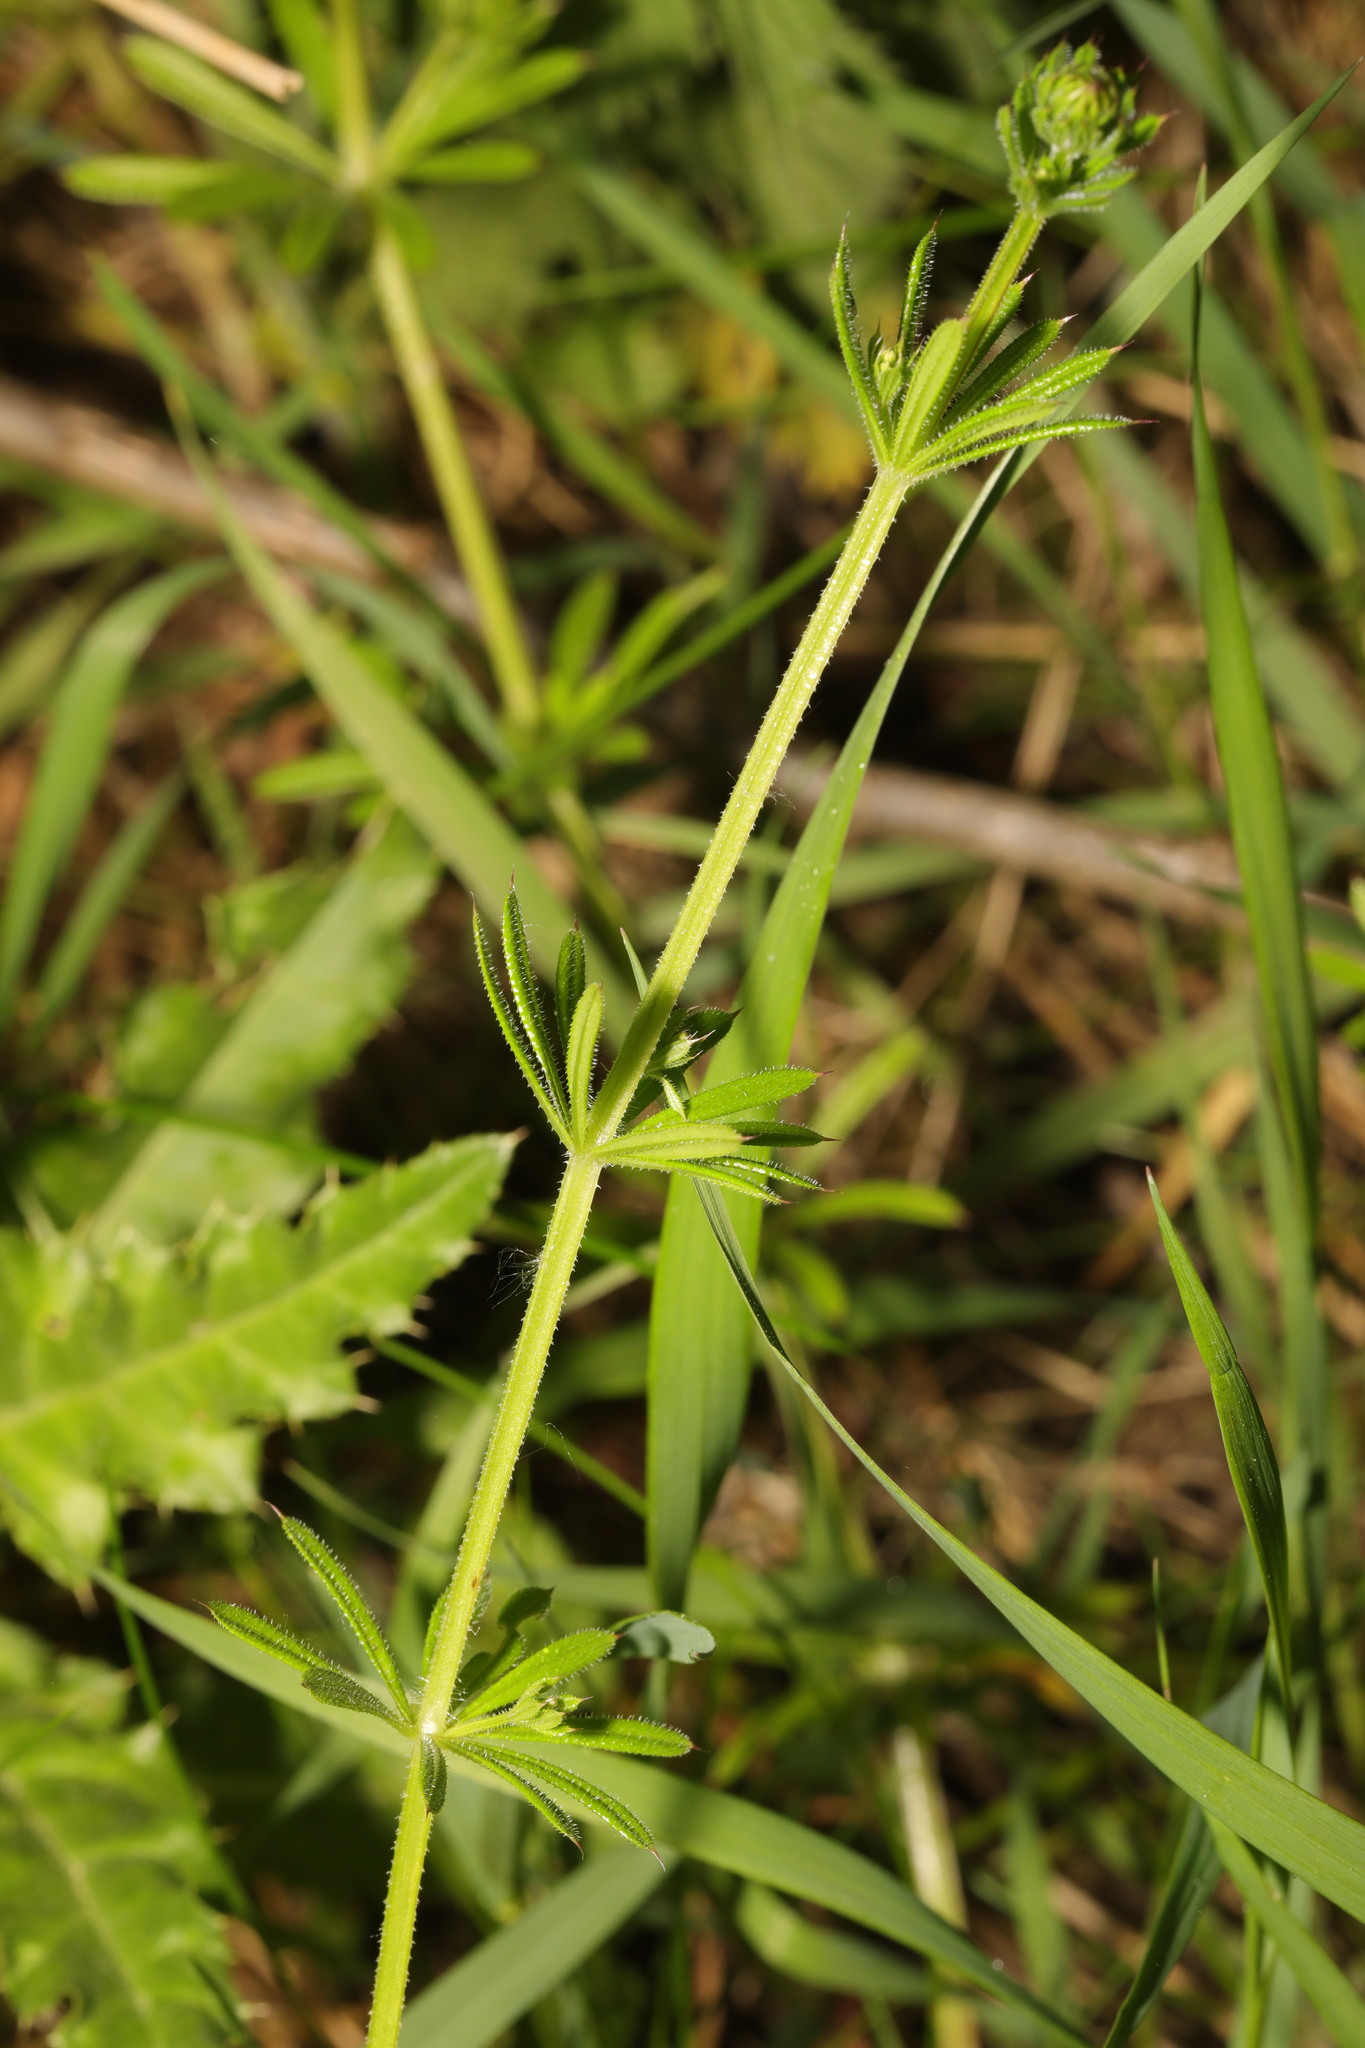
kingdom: Plantae
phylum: Tracheophyta
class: Magnoliopsida
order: Gentianales
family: Rubiaceae
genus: Galium
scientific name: Galium aparine
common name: Cleavers
